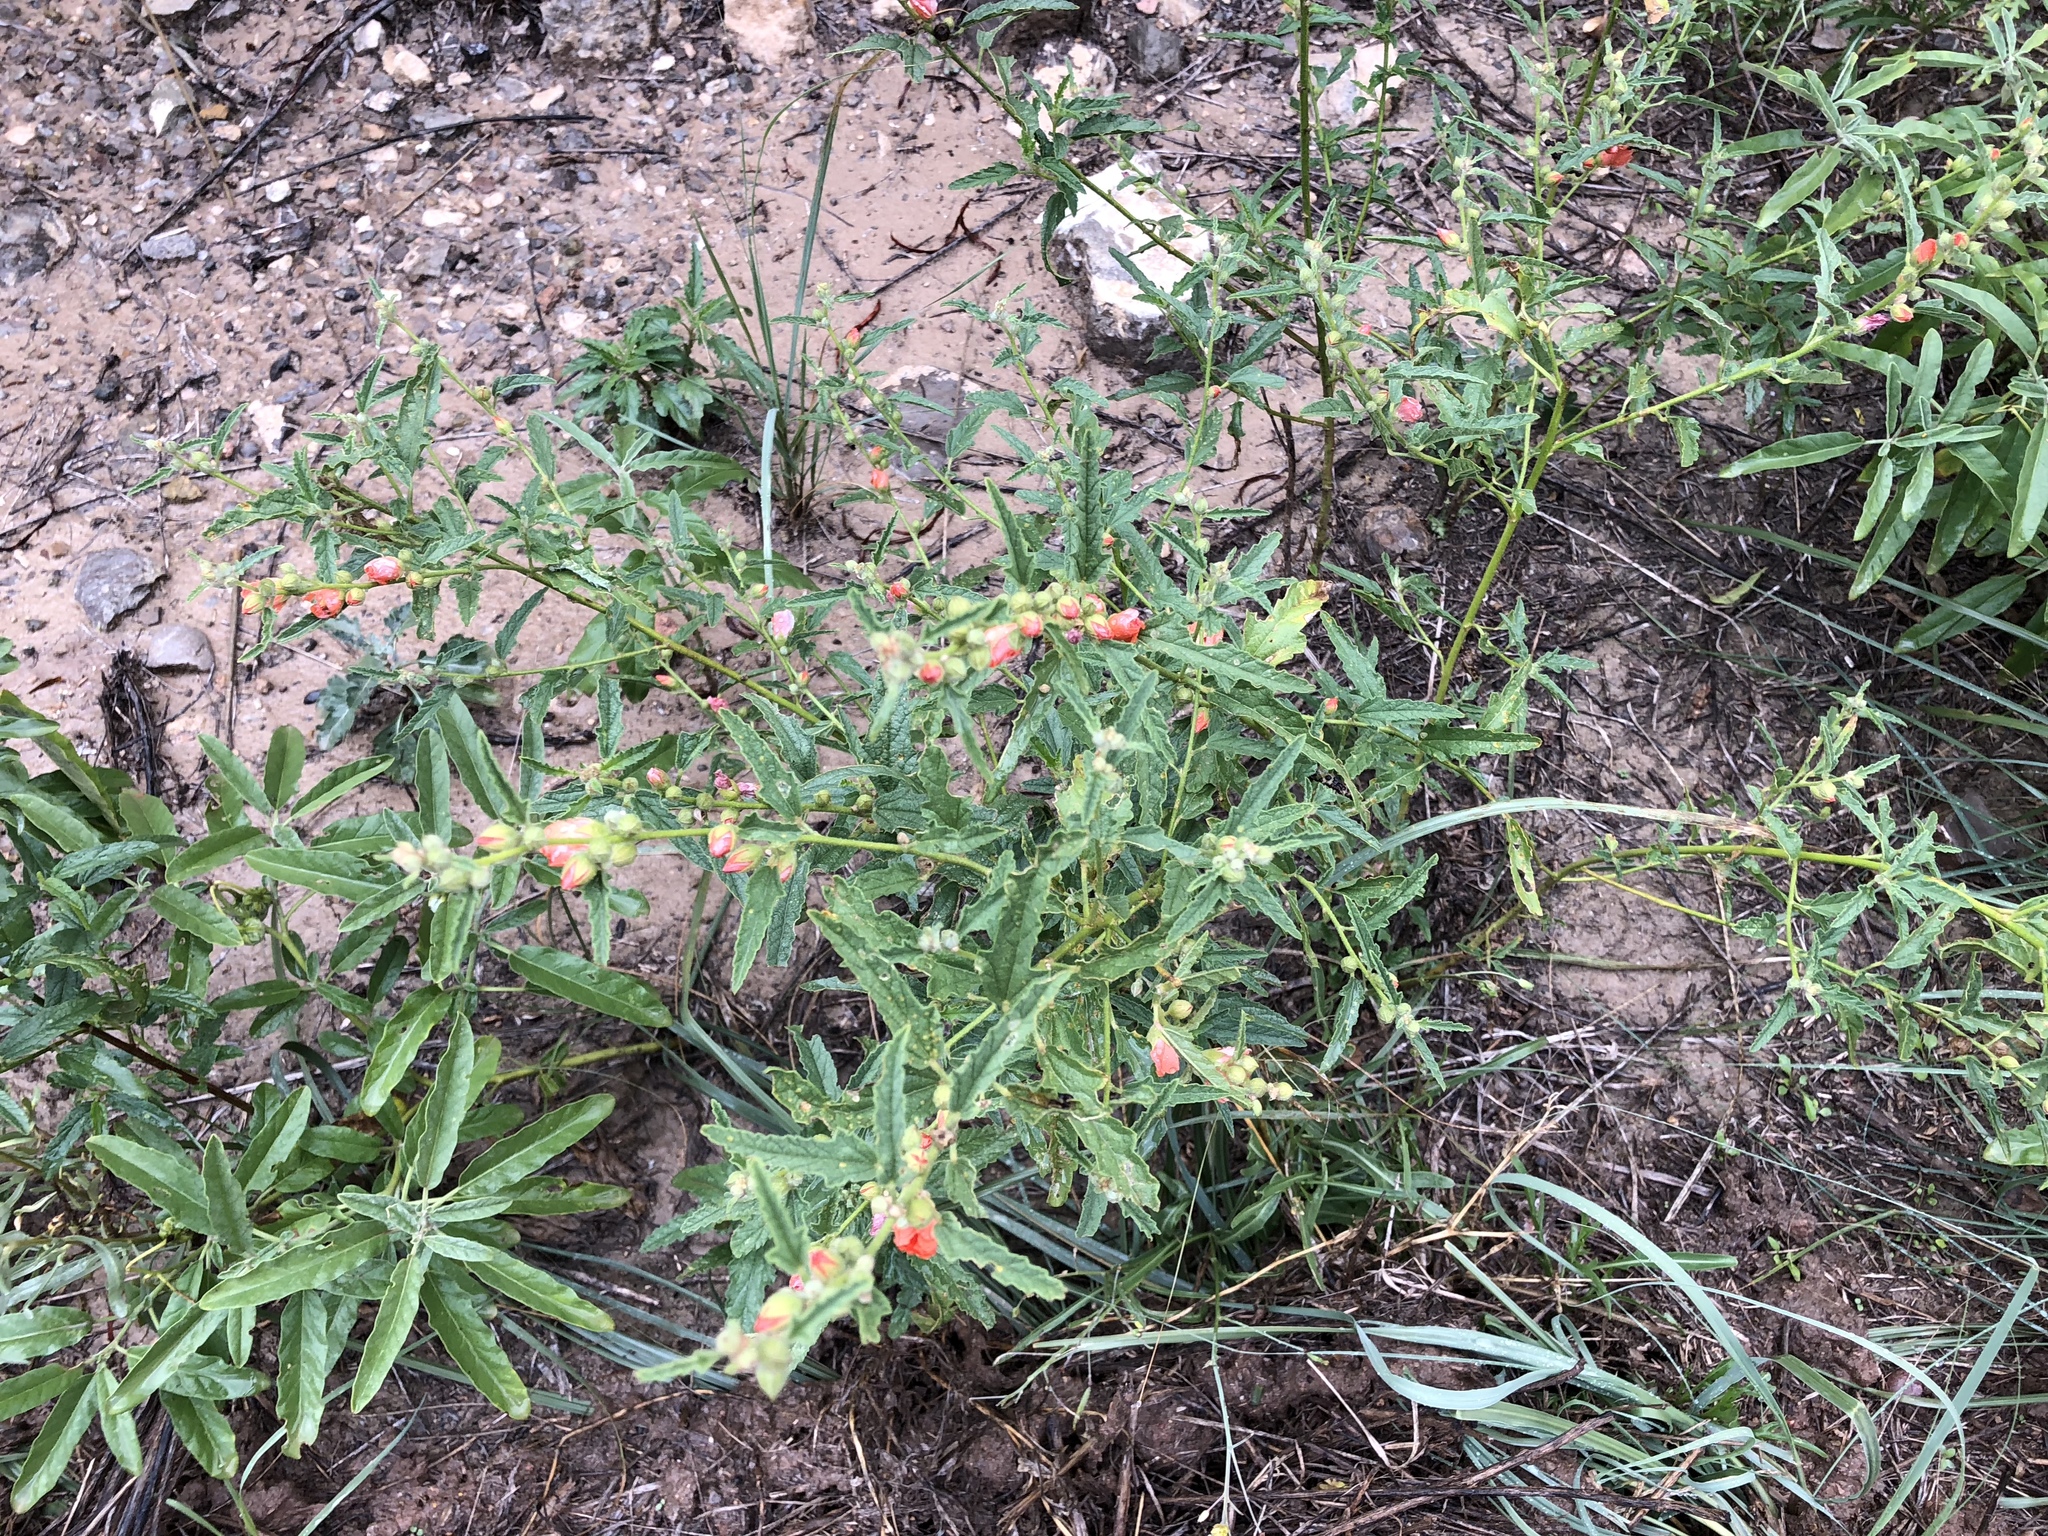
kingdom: Plantae
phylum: Tracheophyta
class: Magnoliopsida
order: Malvales
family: Malvaceae
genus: Sphaeralcea
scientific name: Sphaeralcea angustifolia
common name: Copper globe-mallow
